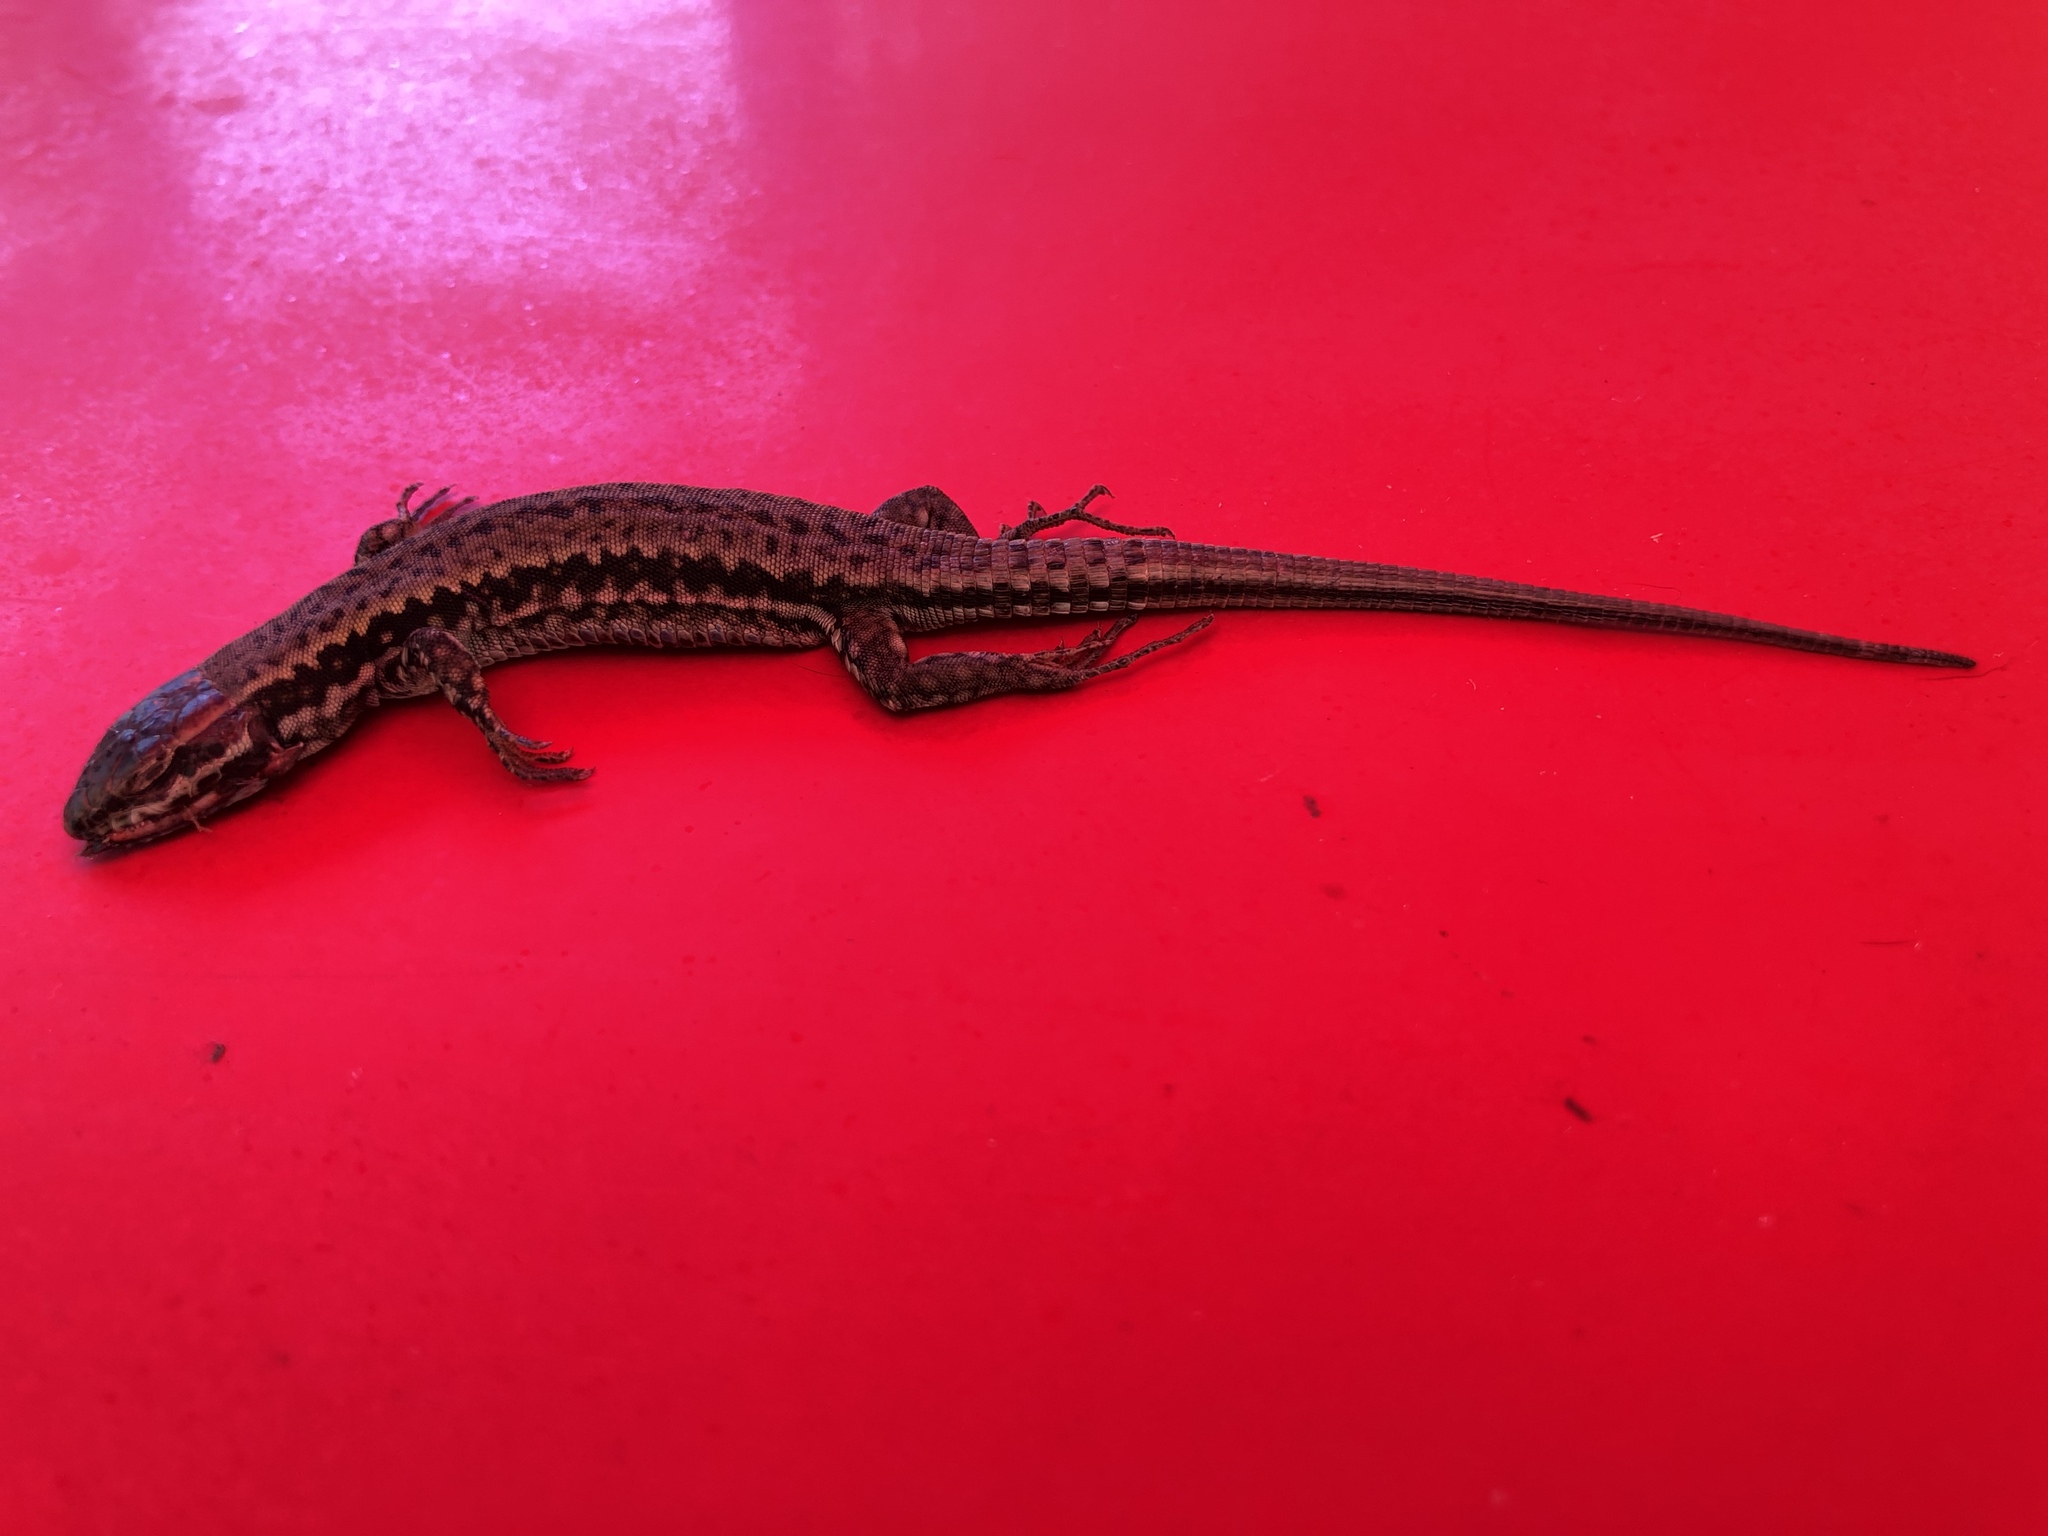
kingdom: Animalia
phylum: Chordata
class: Squamata
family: Lacertidae
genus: Podarcis
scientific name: Podarcis muralis
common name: Common wall lizard
